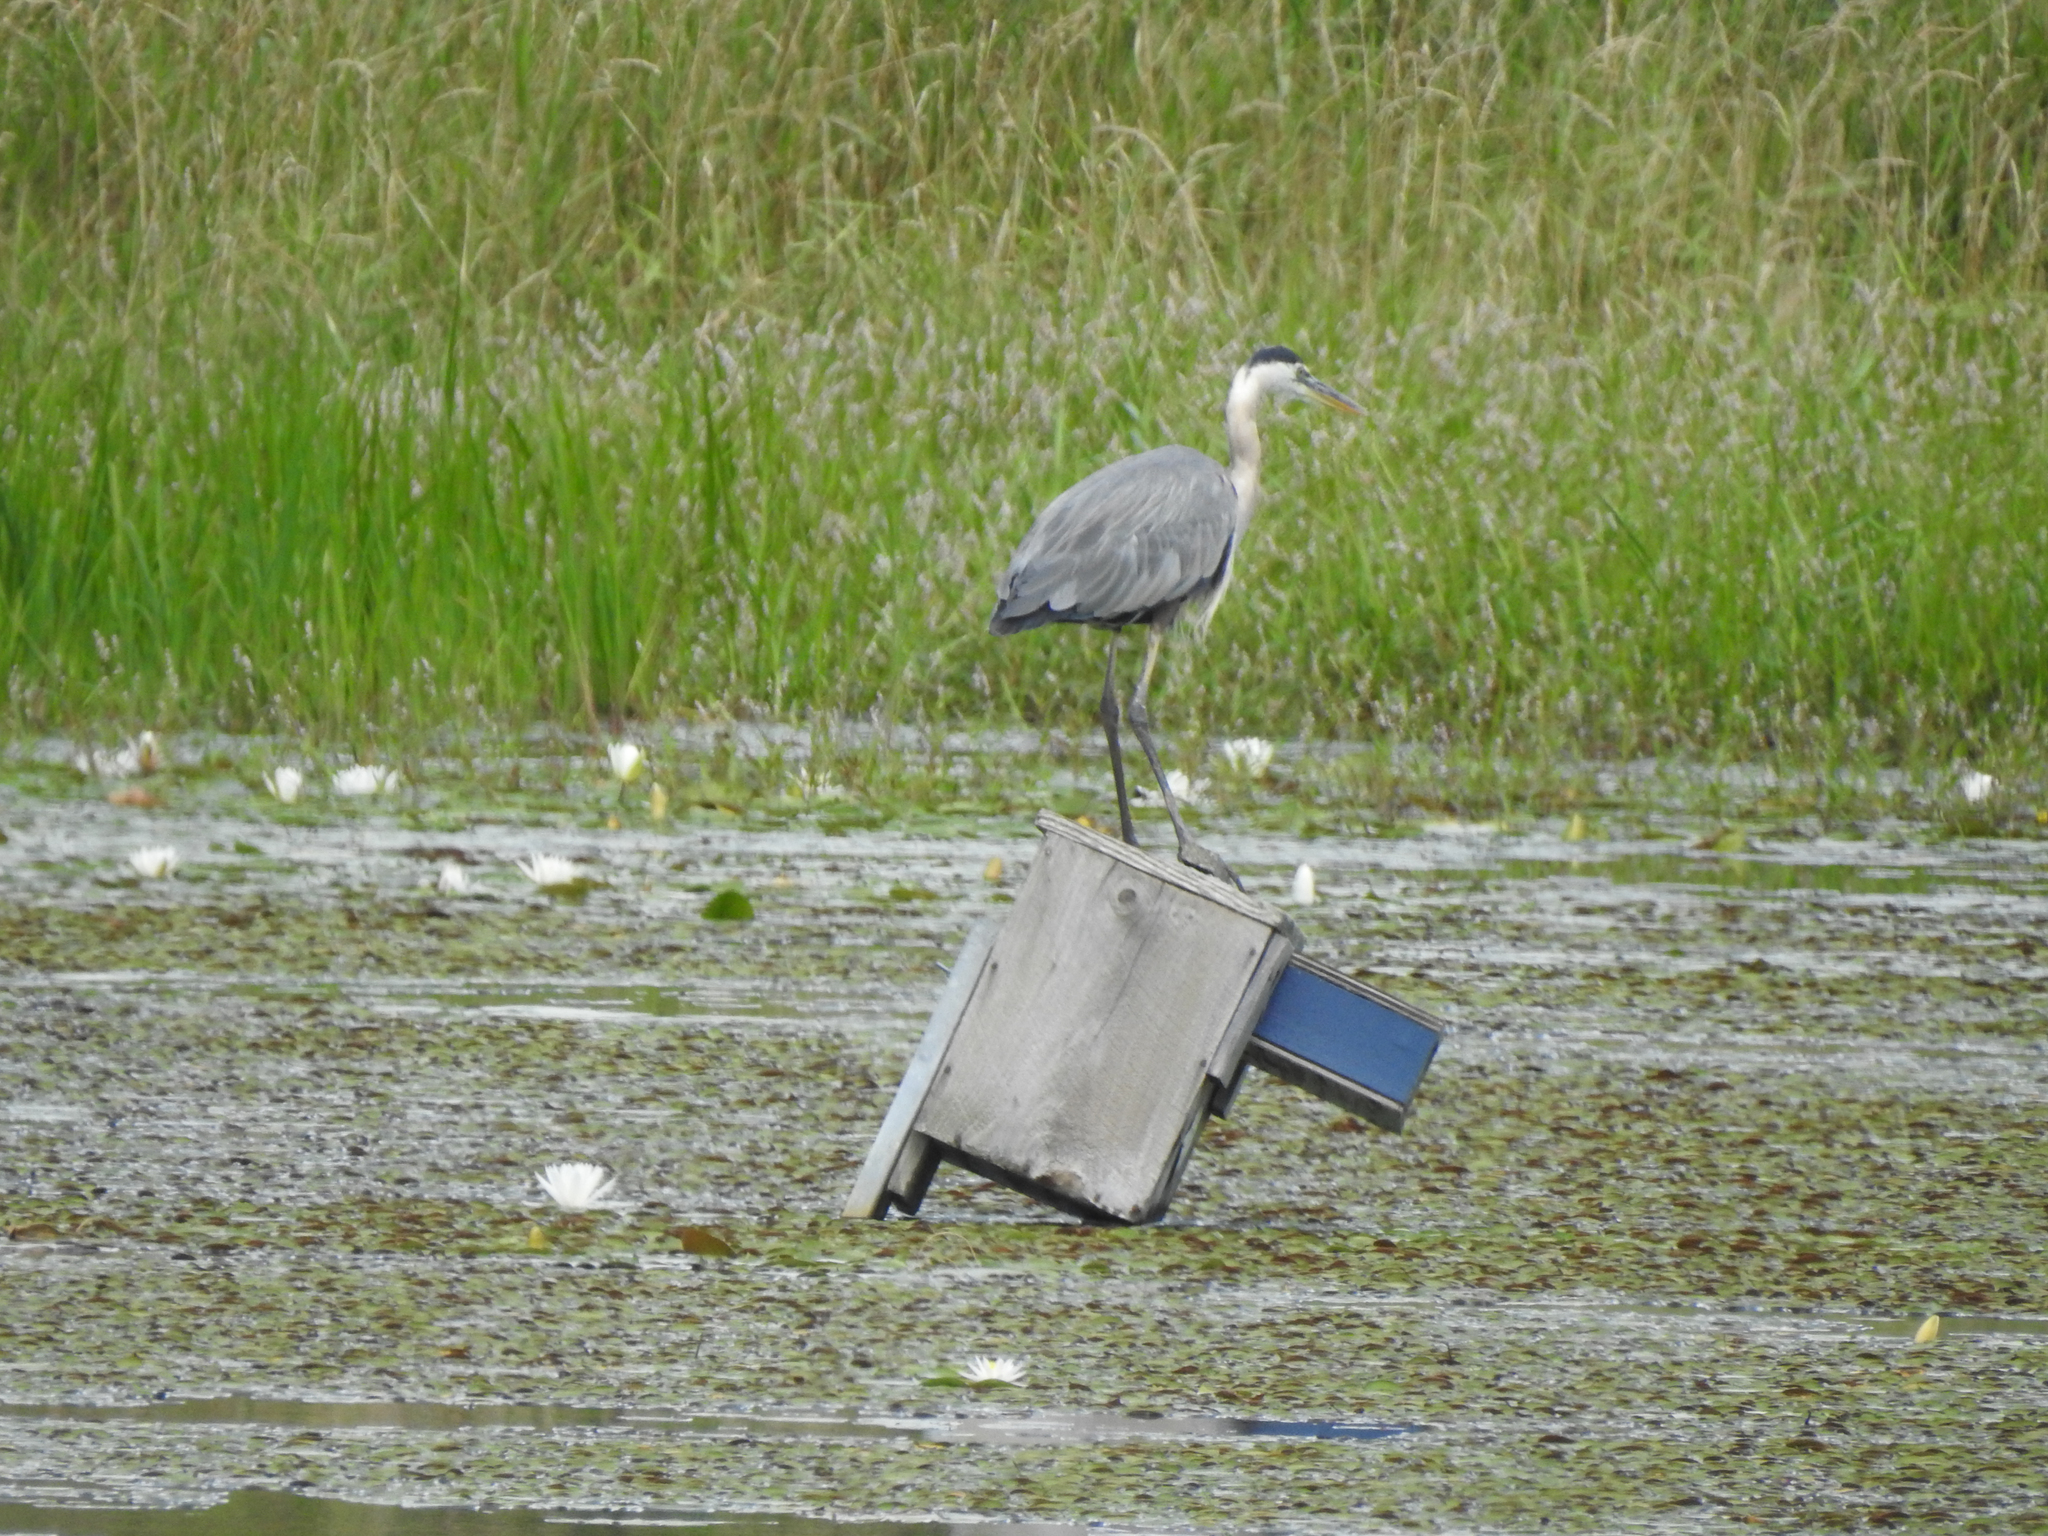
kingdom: Animalia
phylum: Chordata
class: Aves
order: Pelecaniformes
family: Ardeidae
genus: Ardea
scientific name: Ardea herodias
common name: Great blue heron
